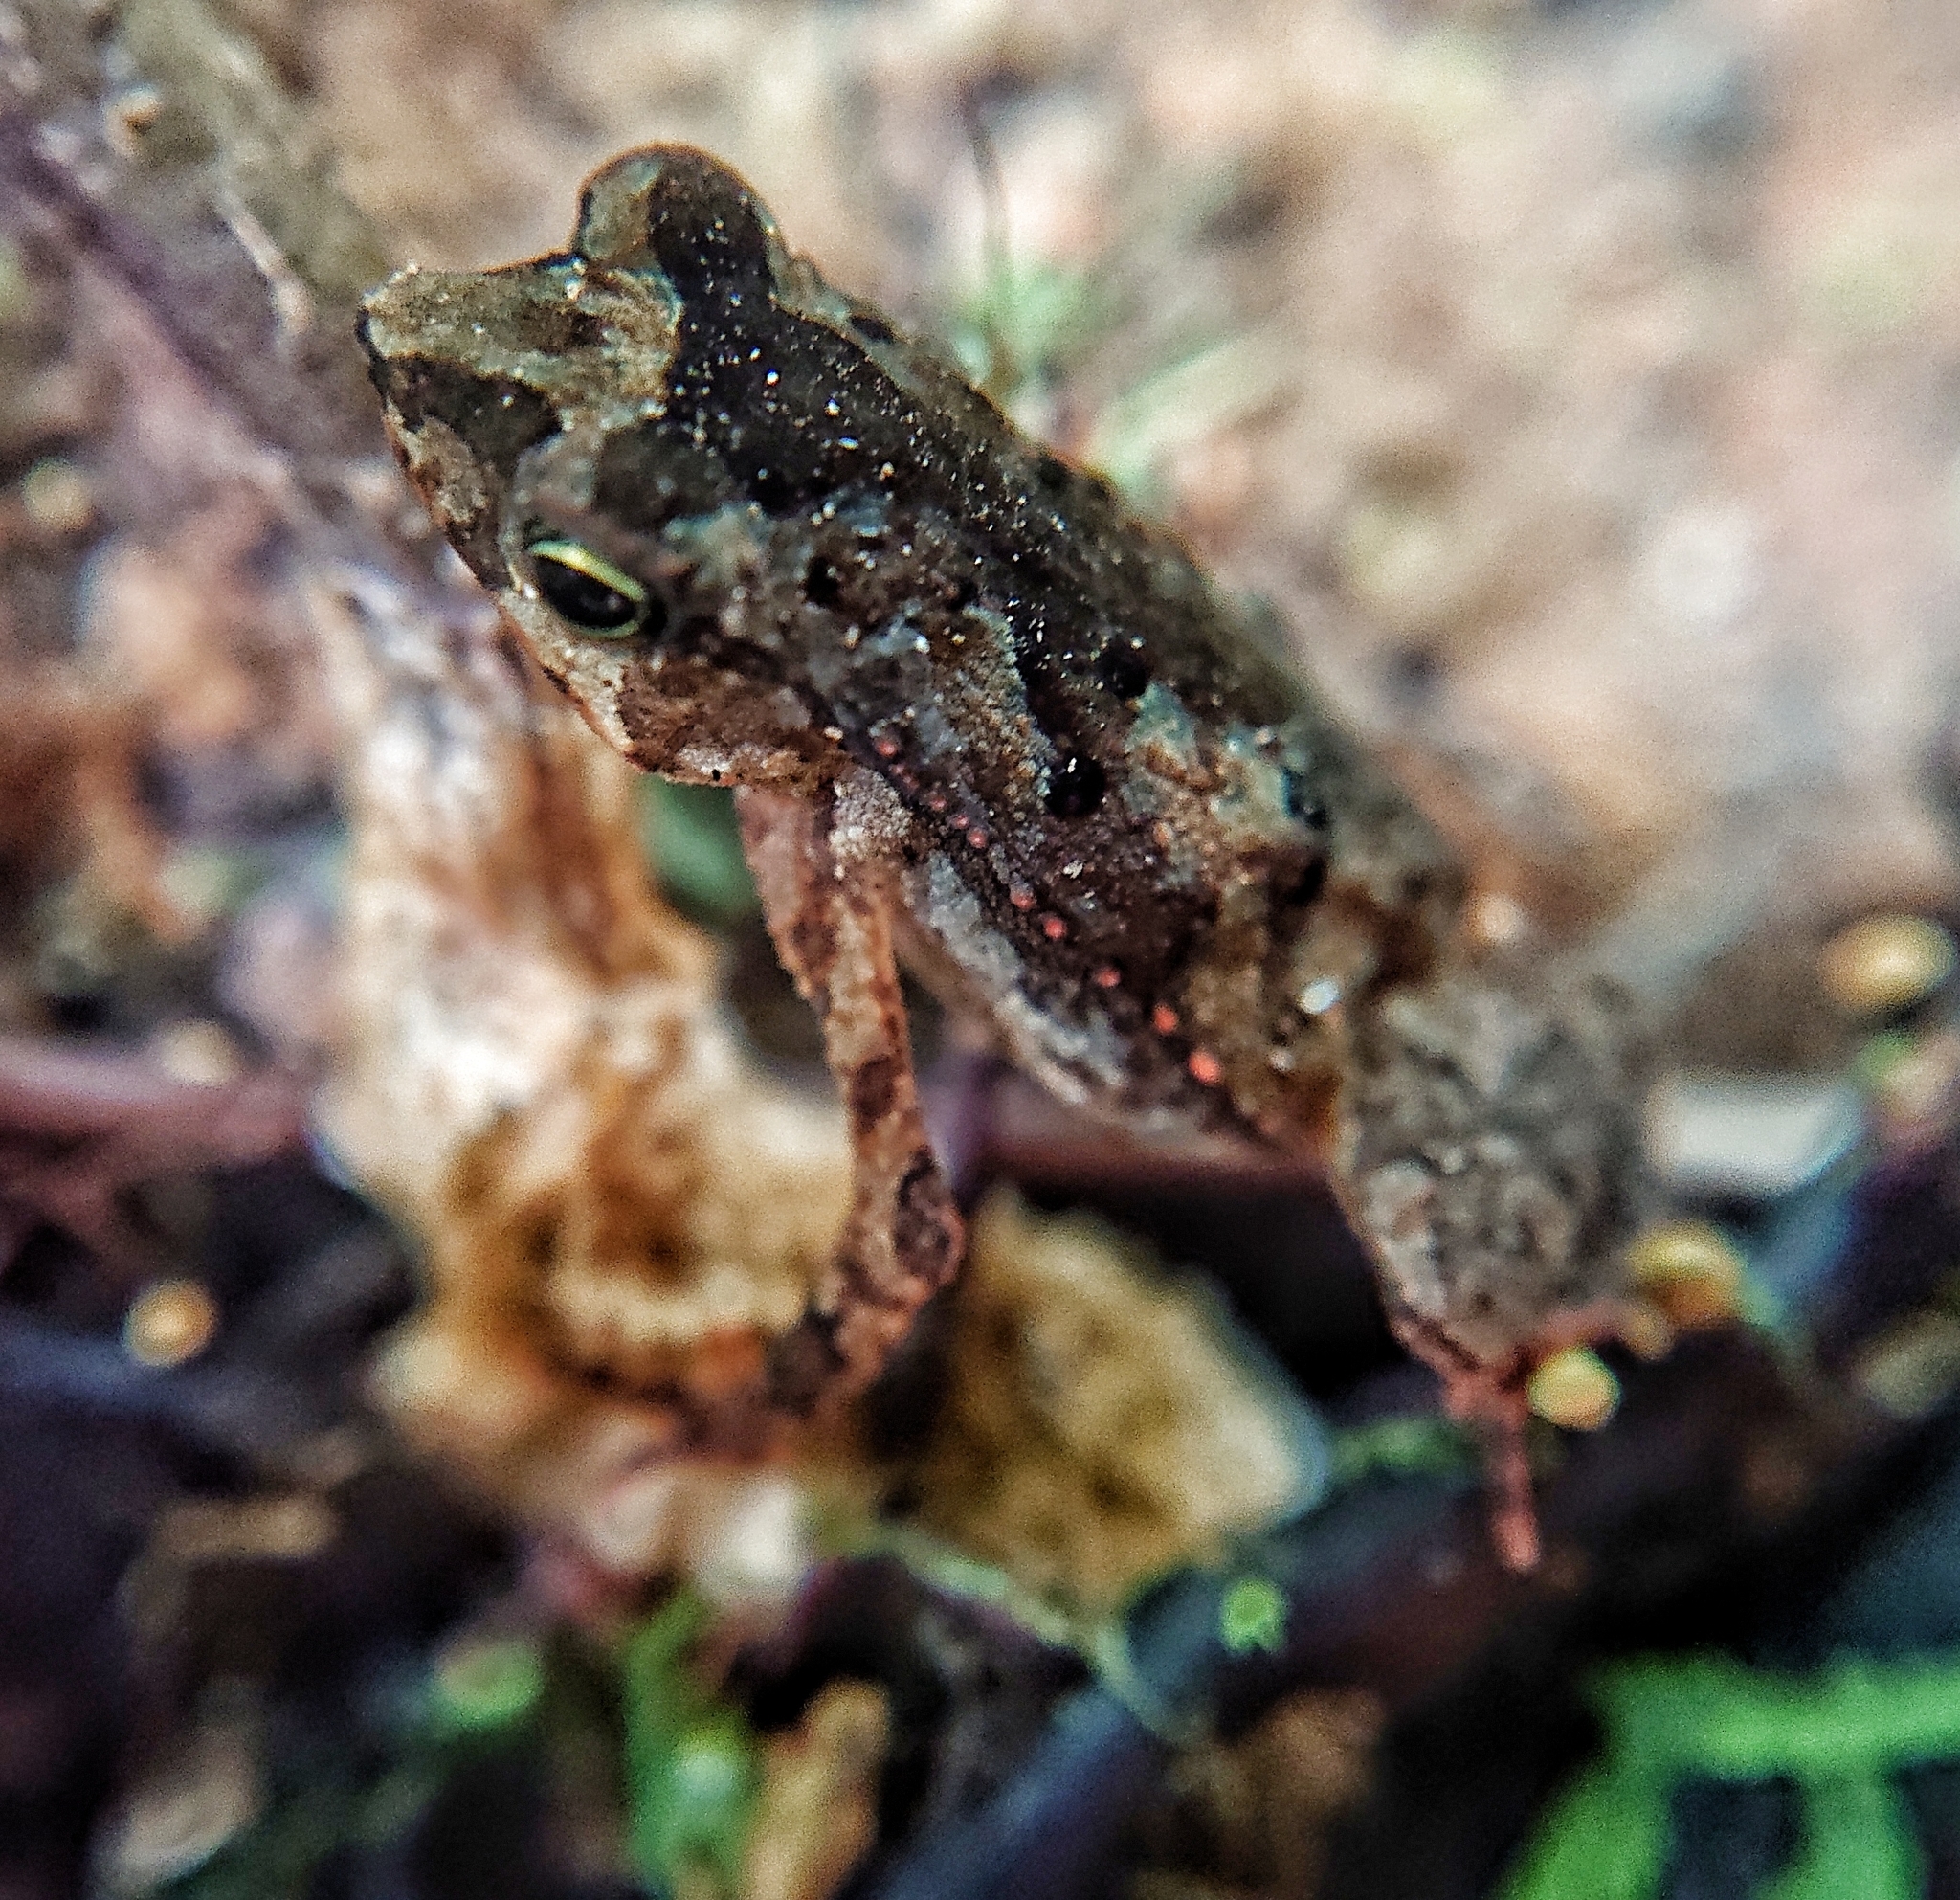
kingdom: Animalia
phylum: Chordata
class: Amphibia
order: Anura
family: Bufonidae
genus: Rhinella
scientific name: Rhinella margaritifera
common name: Mitred toad
